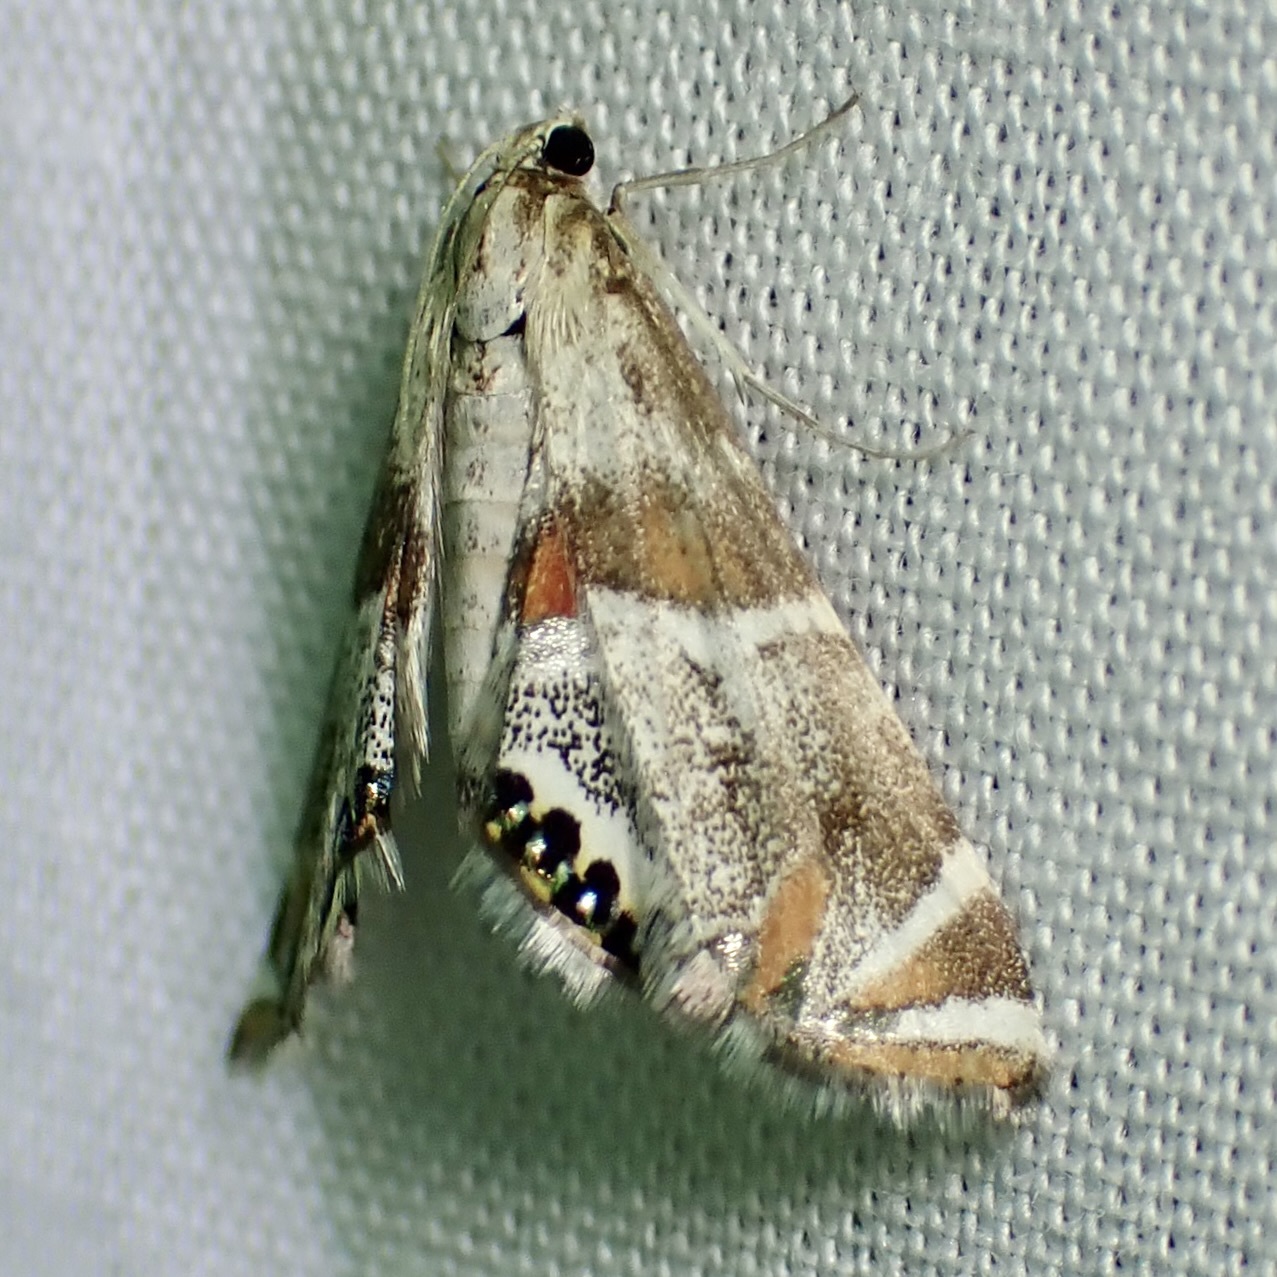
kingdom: Animalia
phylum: Arthropoda
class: Insecta
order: Lepidoptera
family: Crambidae
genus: Petrophila
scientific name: Petrophila jaliscalis
